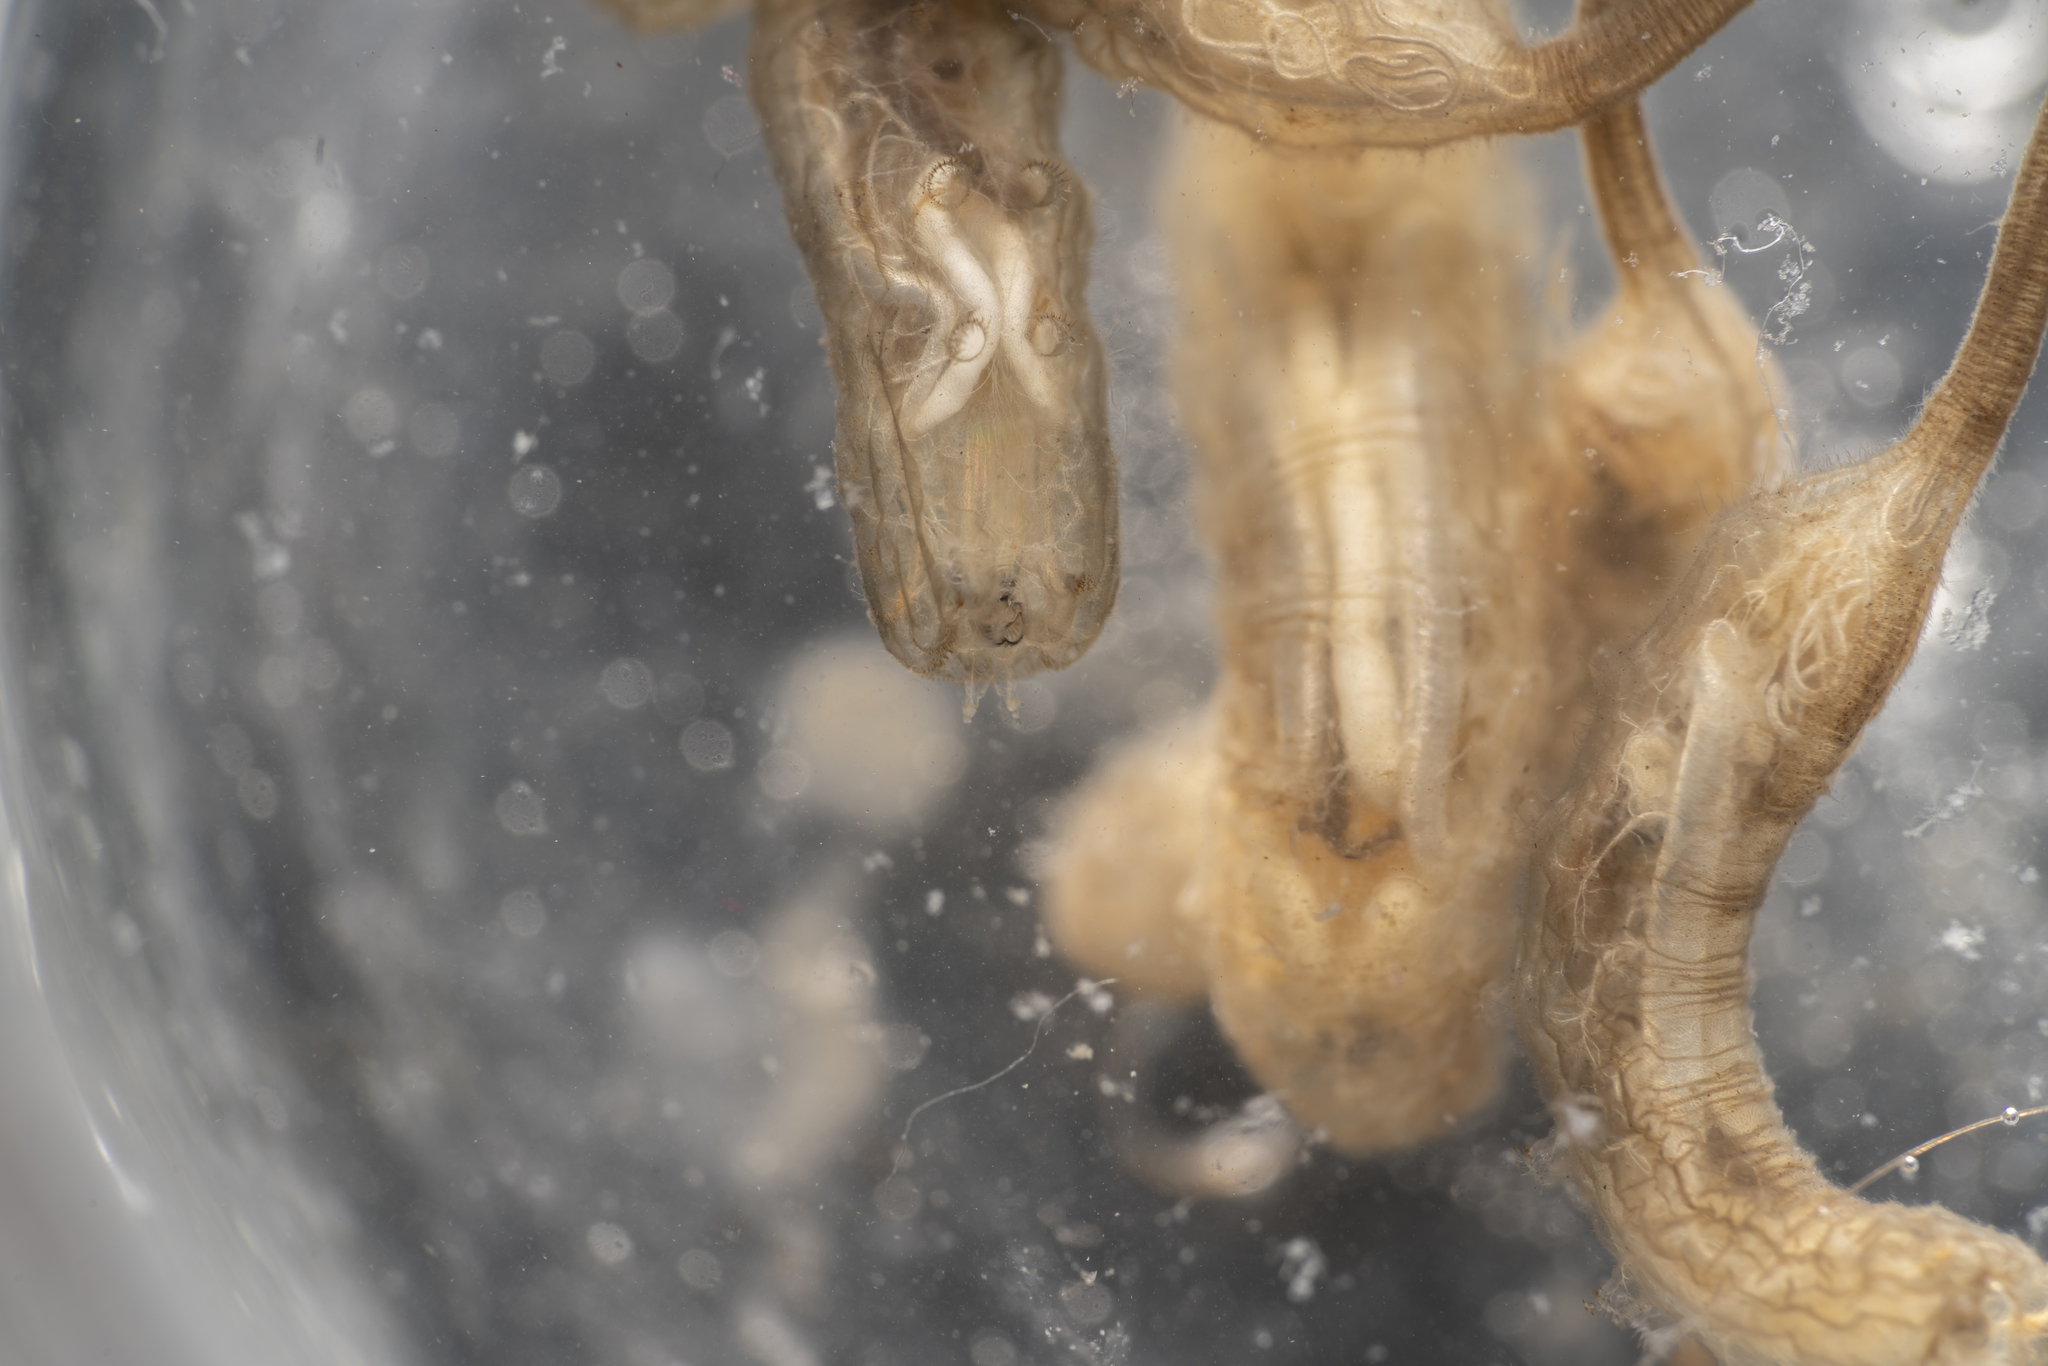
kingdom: Animalia
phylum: Arthropoda
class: Insecta
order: Diptera
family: Syrphidae
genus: Myathropa
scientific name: Myathropa florea
